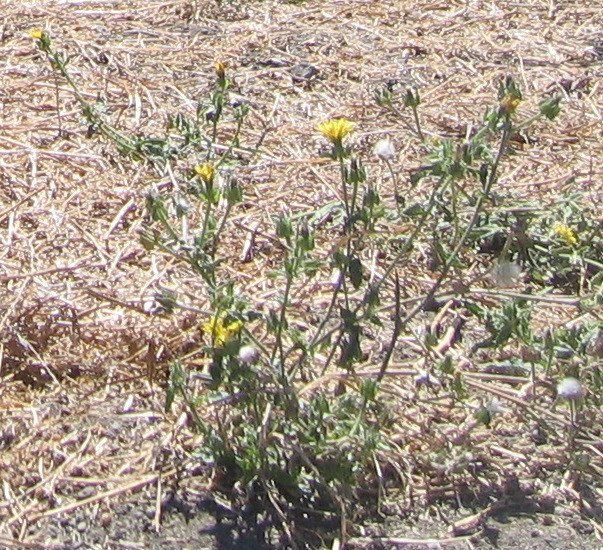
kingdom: Plantae
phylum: Tracheophyta
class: Magnoliopsida
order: Asterales
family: Asteraceae
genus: Helminthotheca
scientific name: Helminthotheca echioides
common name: Ox-tongue
